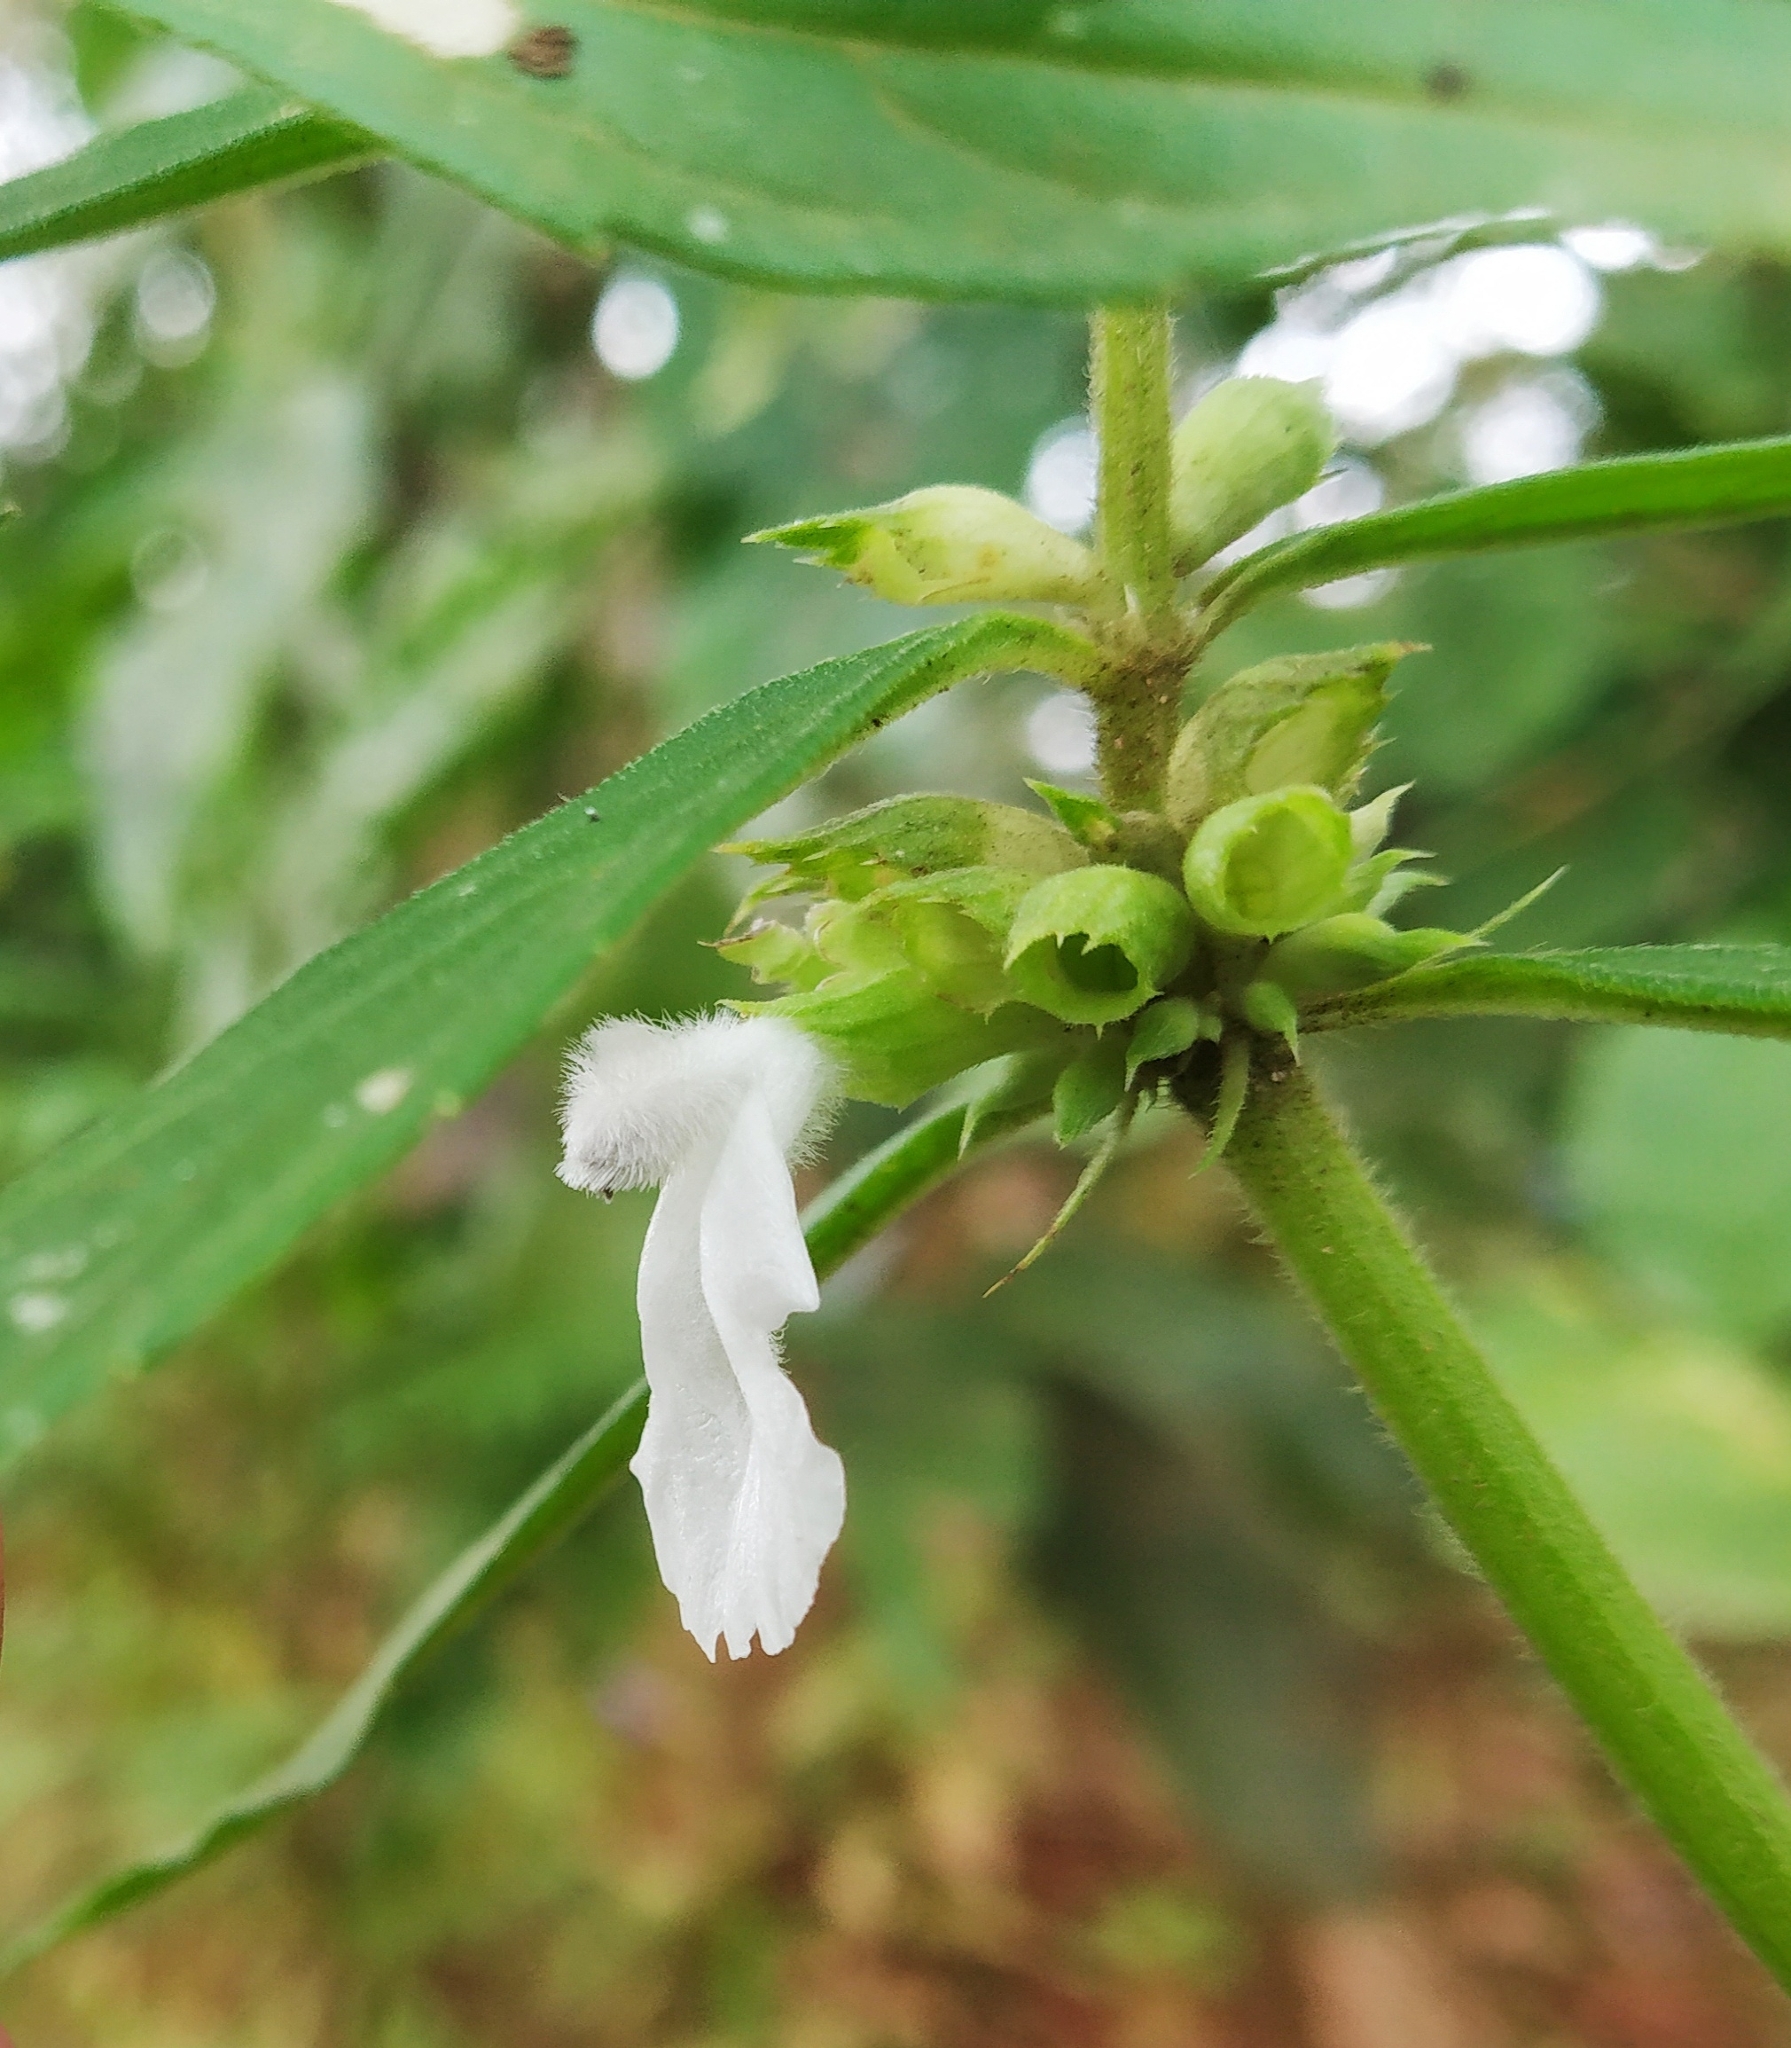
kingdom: Plantae
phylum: Tracheophyta
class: Magnoliopsida
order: Lamiales
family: Lamiaceae
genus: Leucas
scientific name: Leucas aspera
